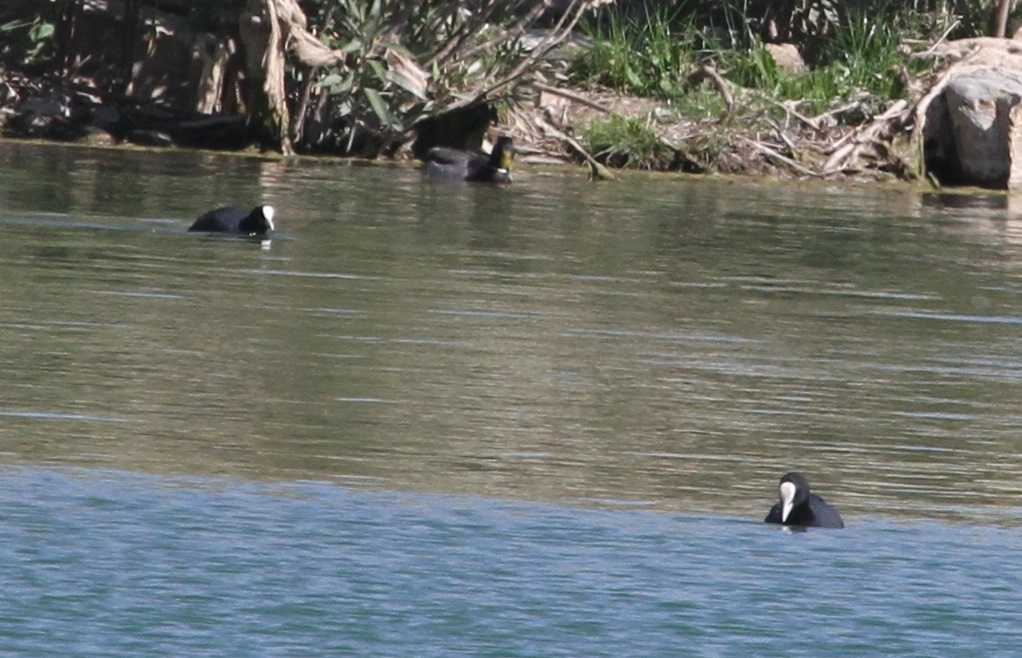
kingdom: Animalia
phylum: Chordata
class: Aves
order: Gruiformes
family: Rallidae
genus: Fulica
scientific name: Fulica atra
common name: Eurasian coot
